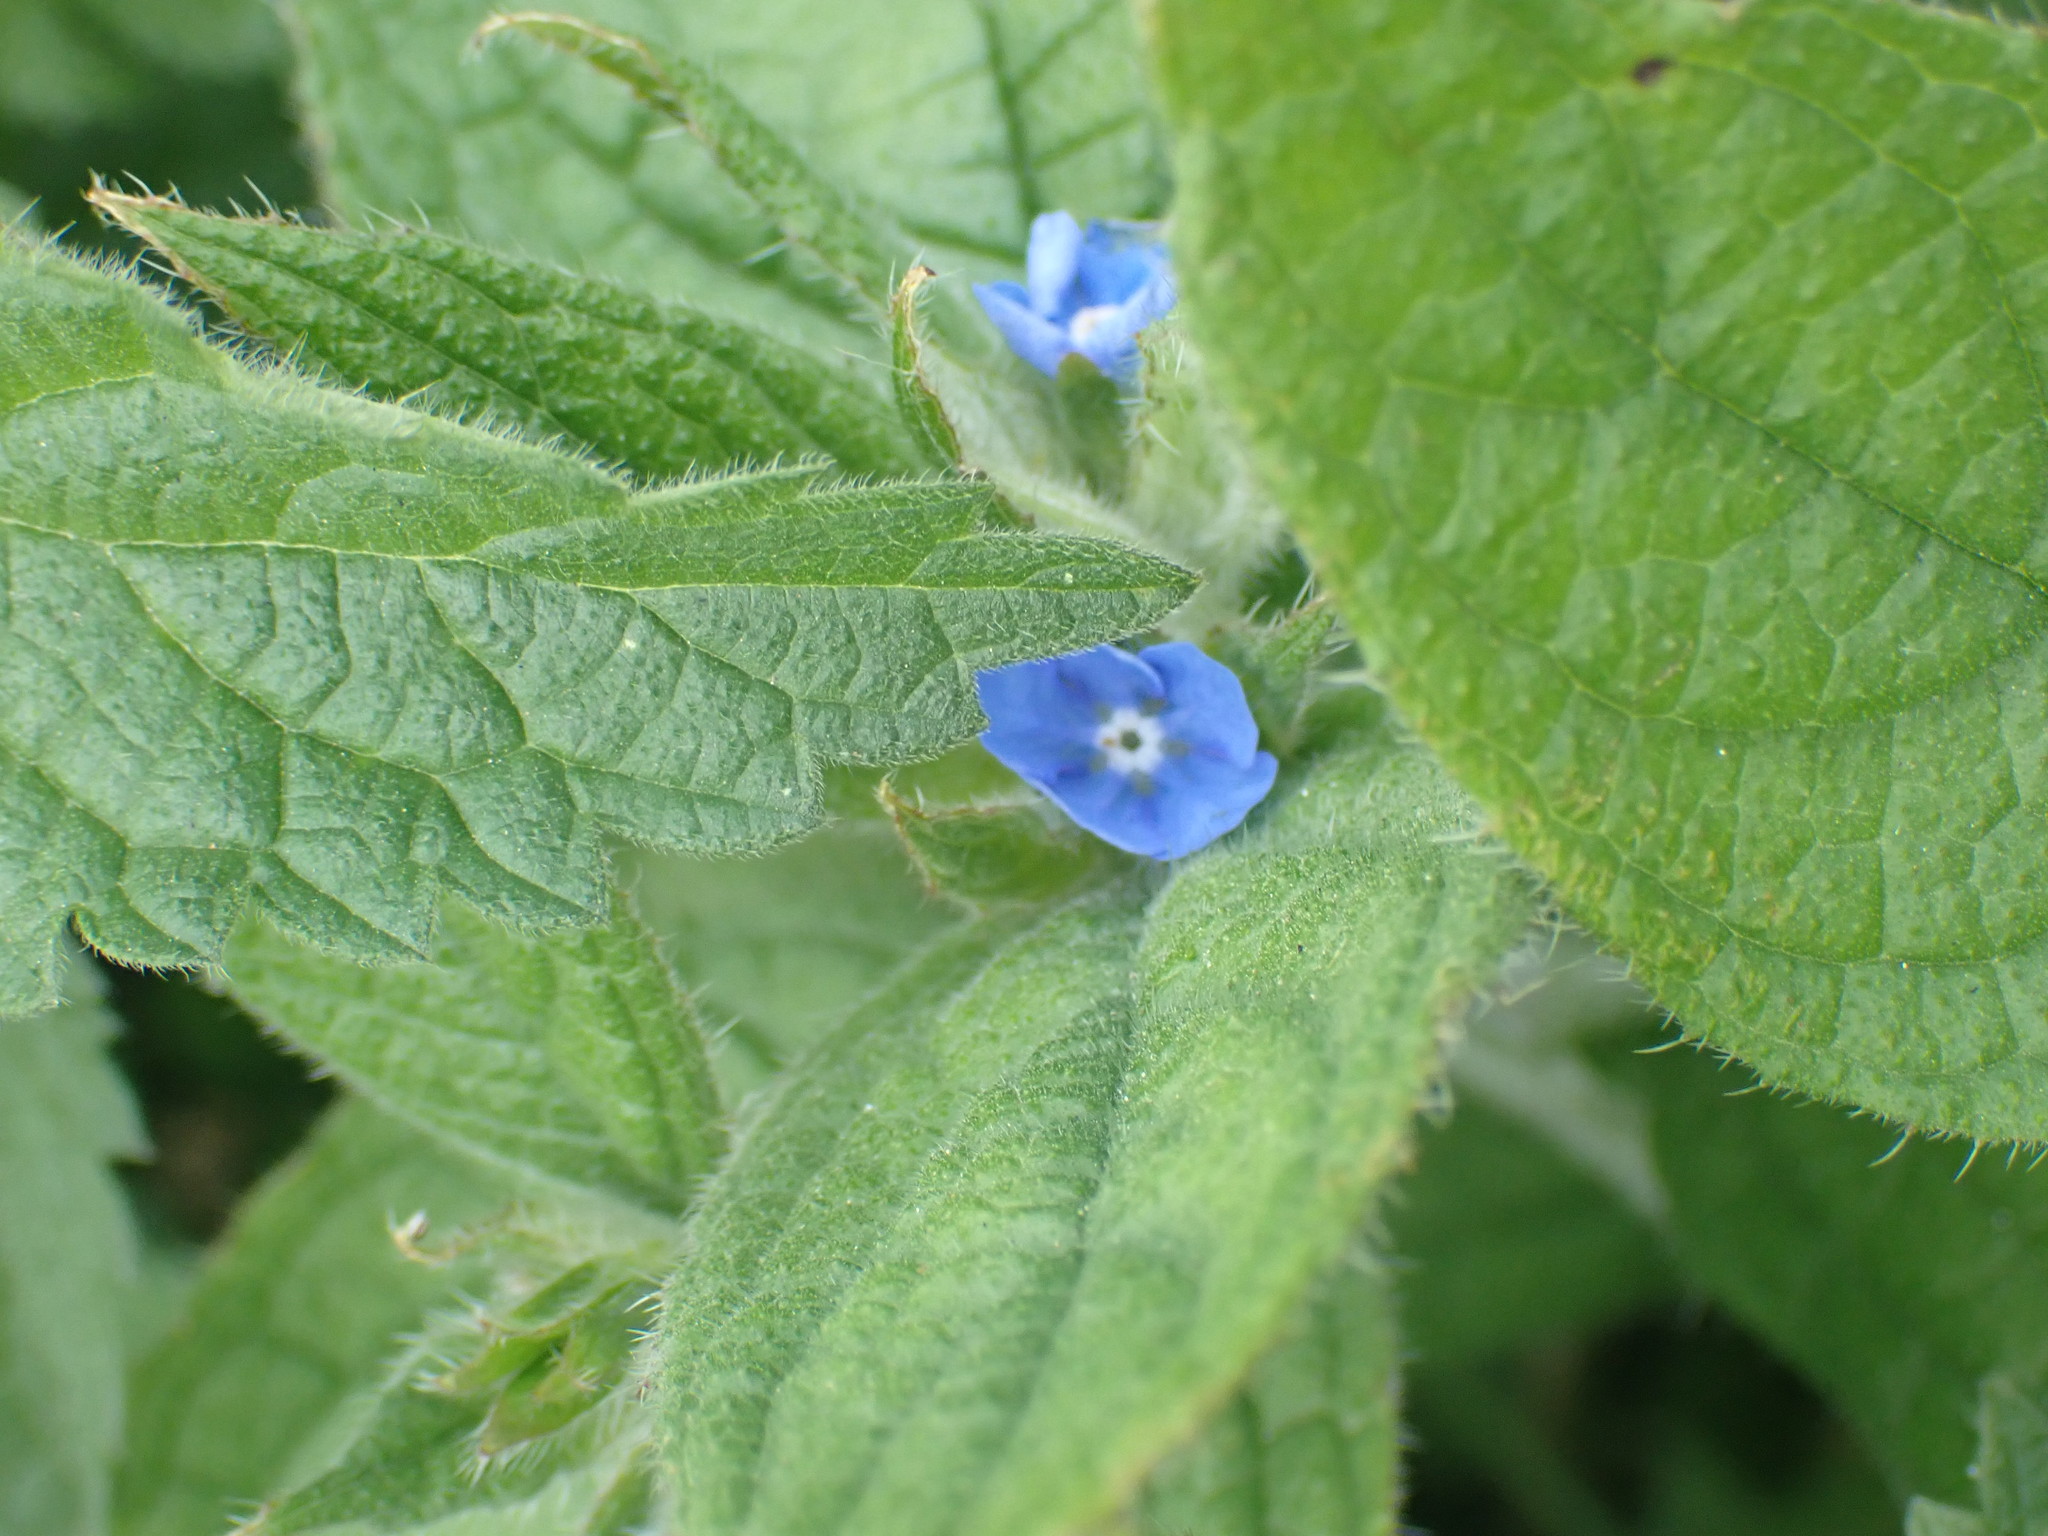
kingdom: Plantae
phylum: Tracheophyta
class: Magnoliopsida
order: Boraginales
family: Boraginaceae
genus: Pentaglottis
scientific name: Pentaglottis sempervirens
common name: Green alkanet
